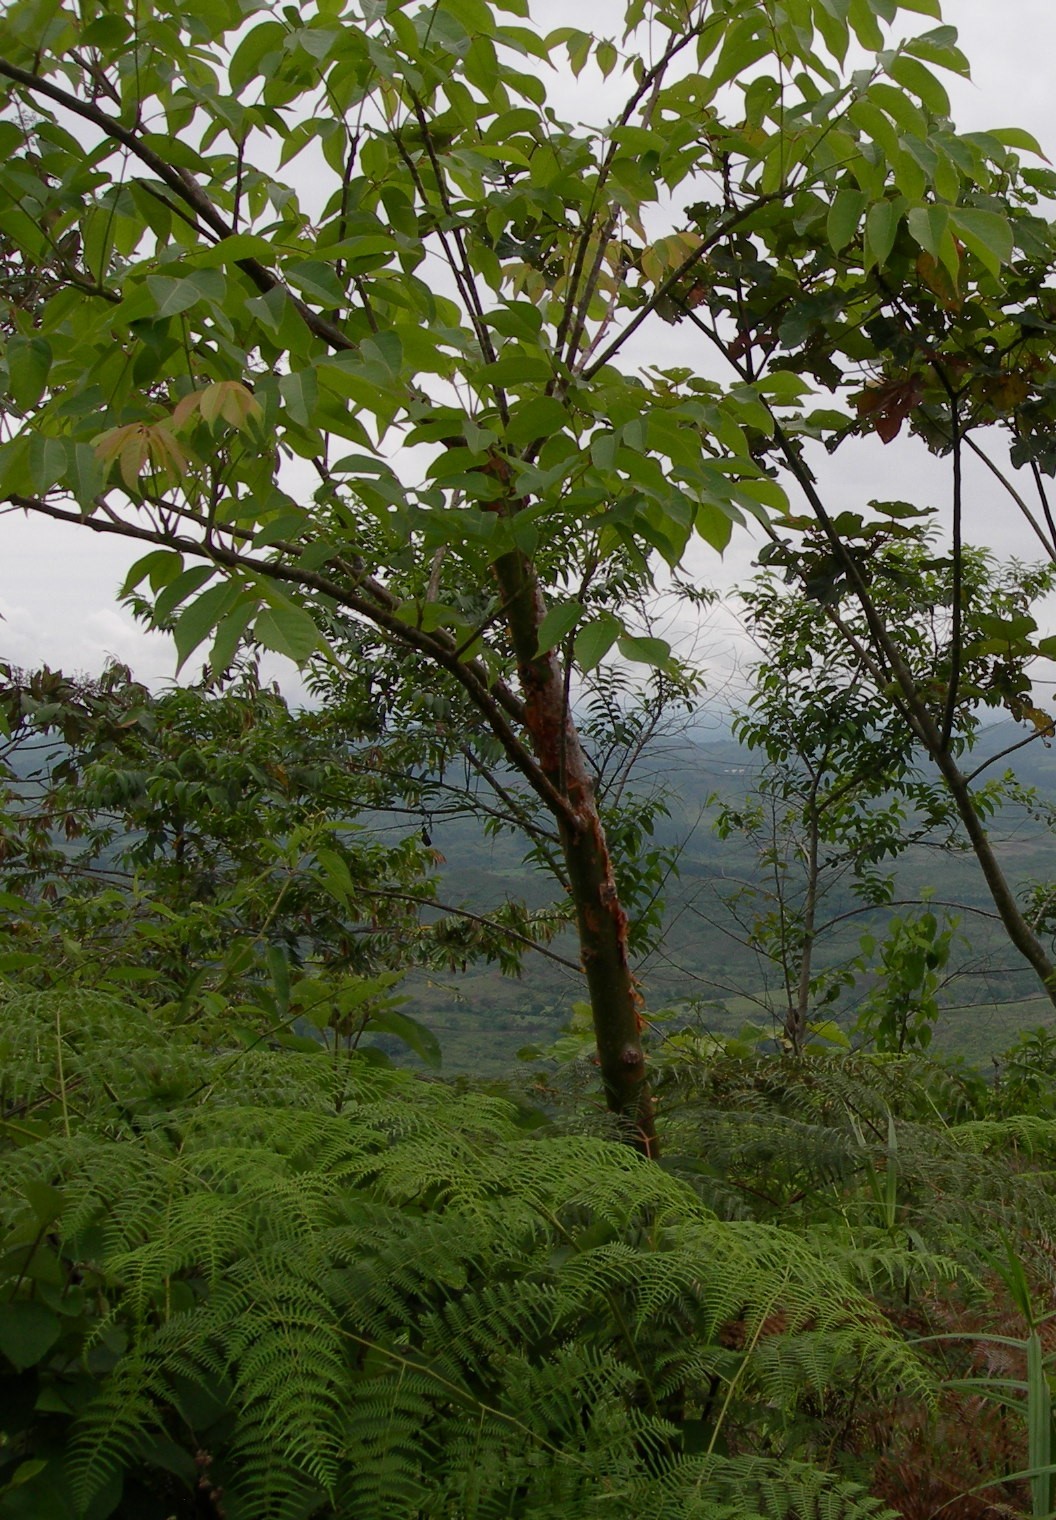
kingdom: Plantae
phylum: Tracheophyta
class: Magnoliopsida
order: Sapindales
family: Burseraceae
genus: Bursera
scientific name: Bursera simaruba
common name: Turpentine tree
